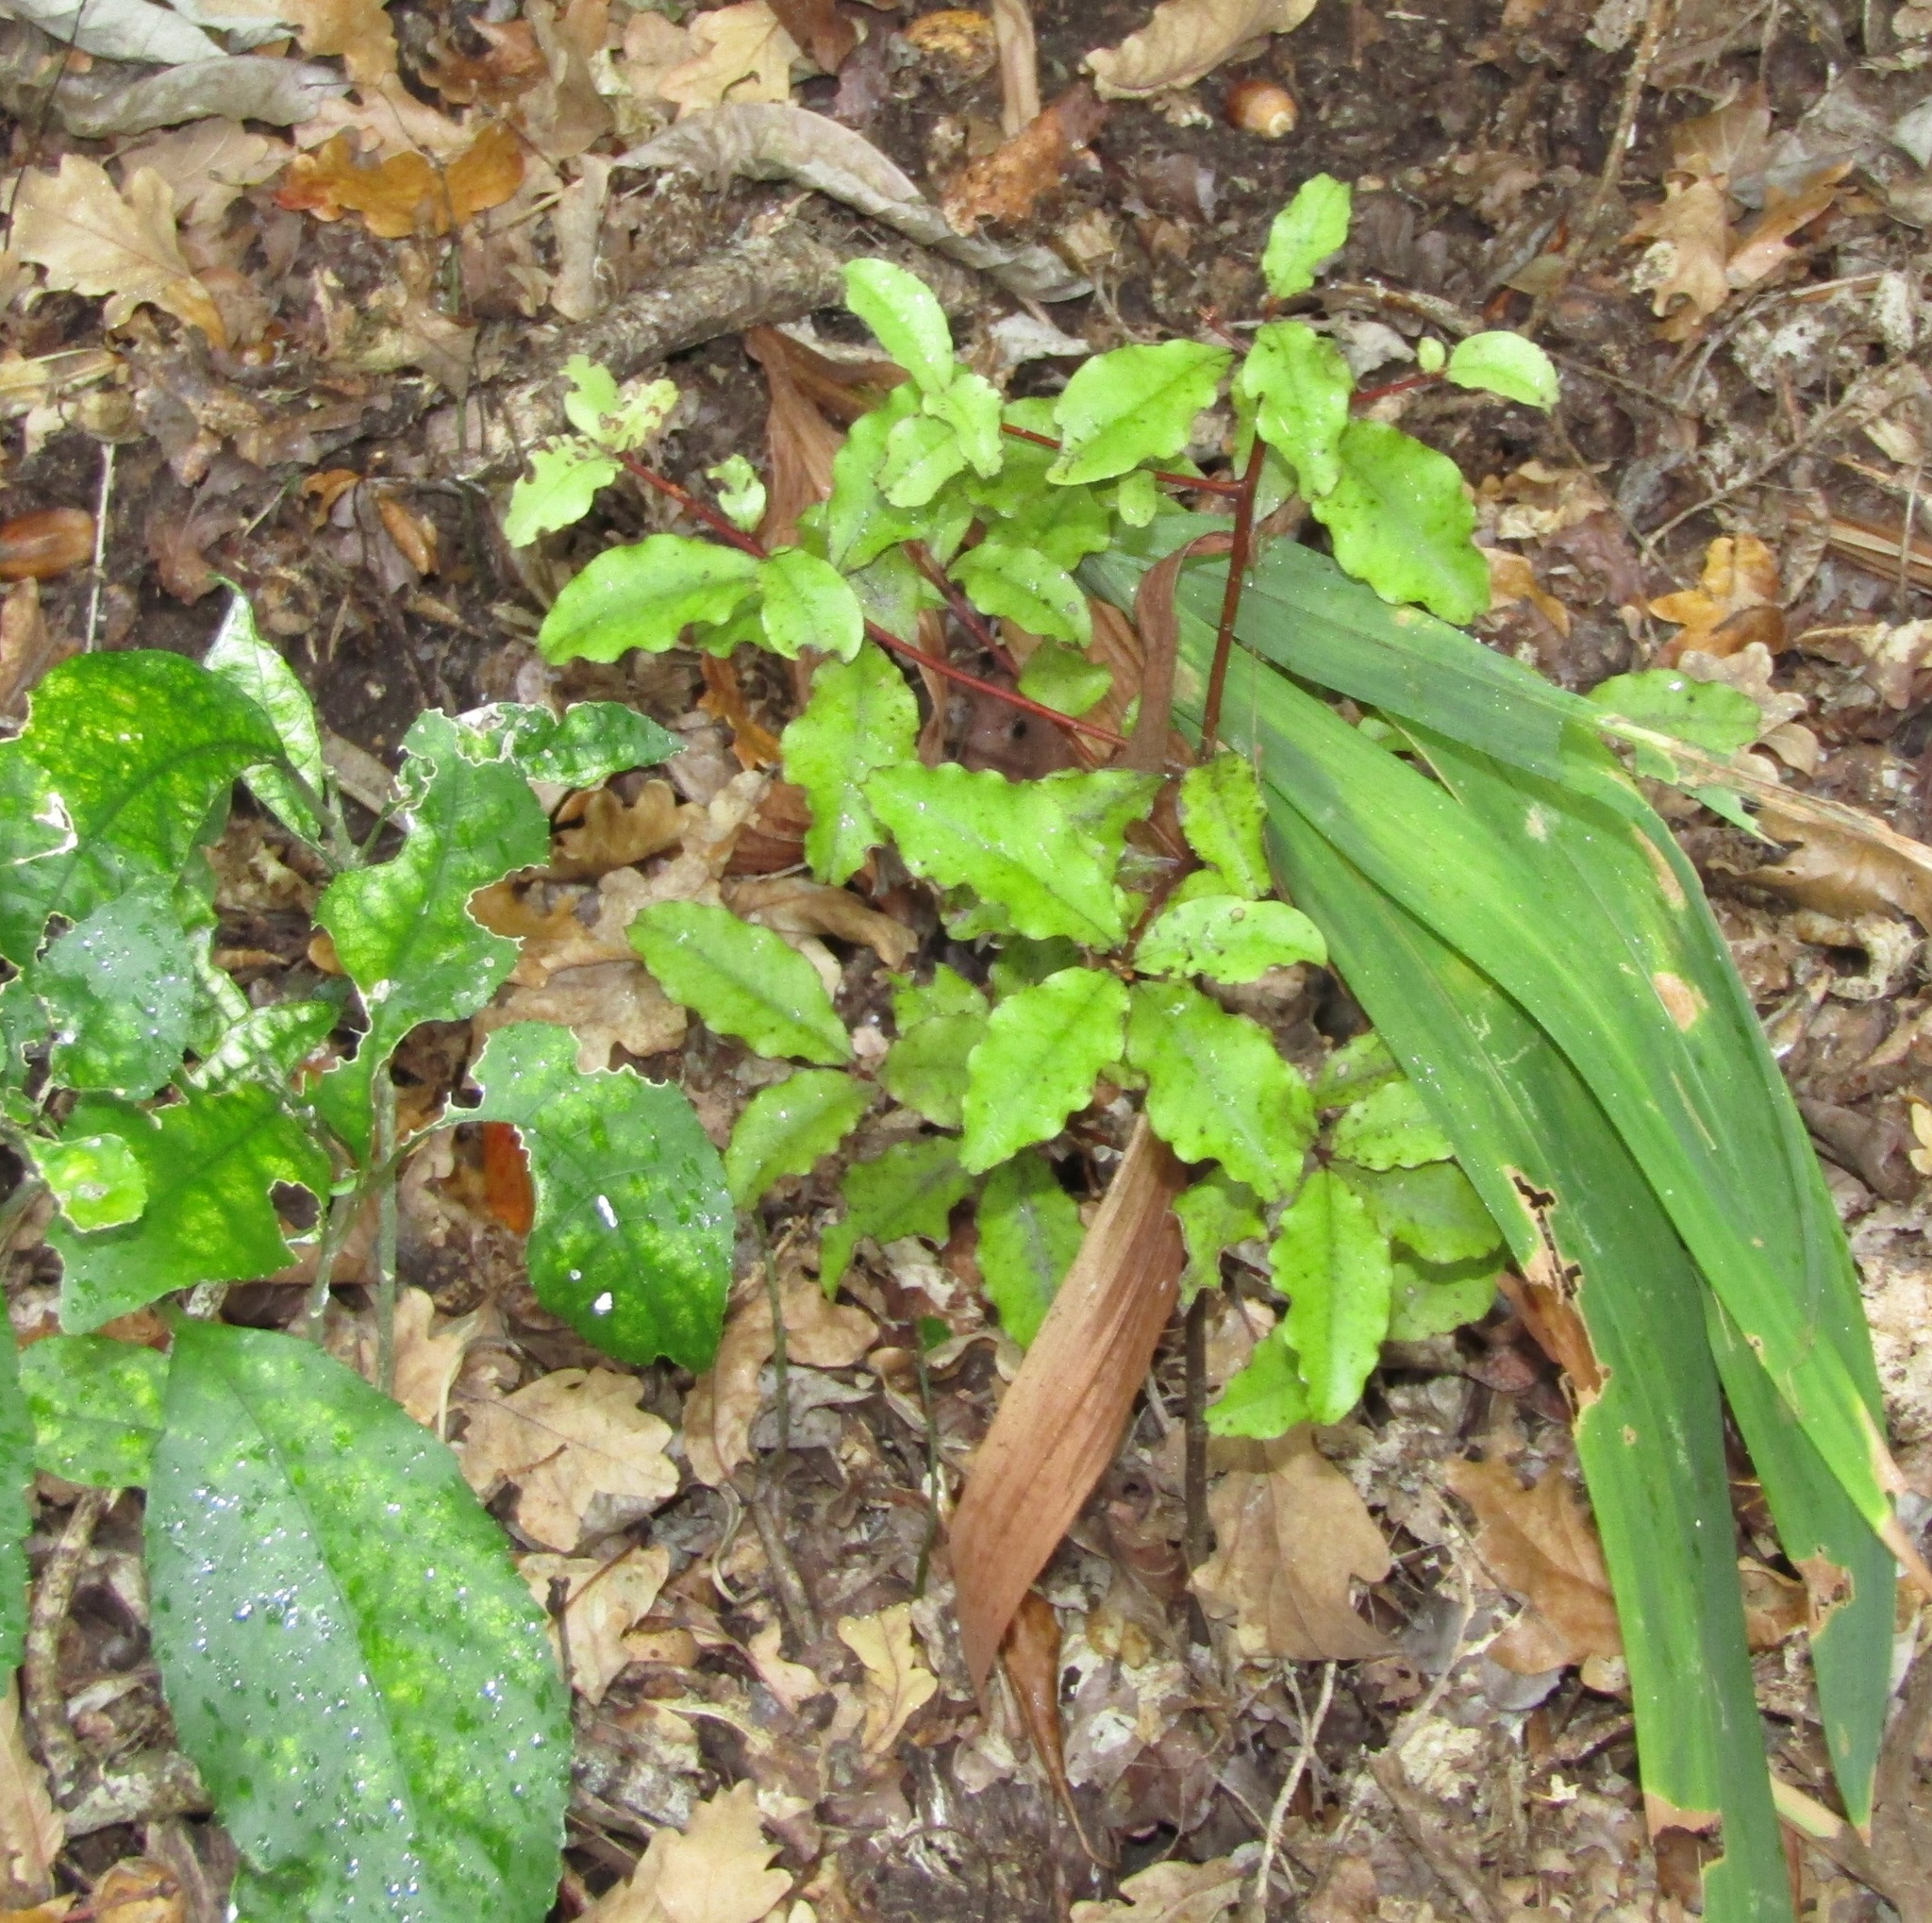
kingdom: Plantae
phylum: Tracheophyta
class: Magnoliopsida
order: Ericales
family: Primulaceae
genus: Myrsine
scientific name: Myrsine australis
